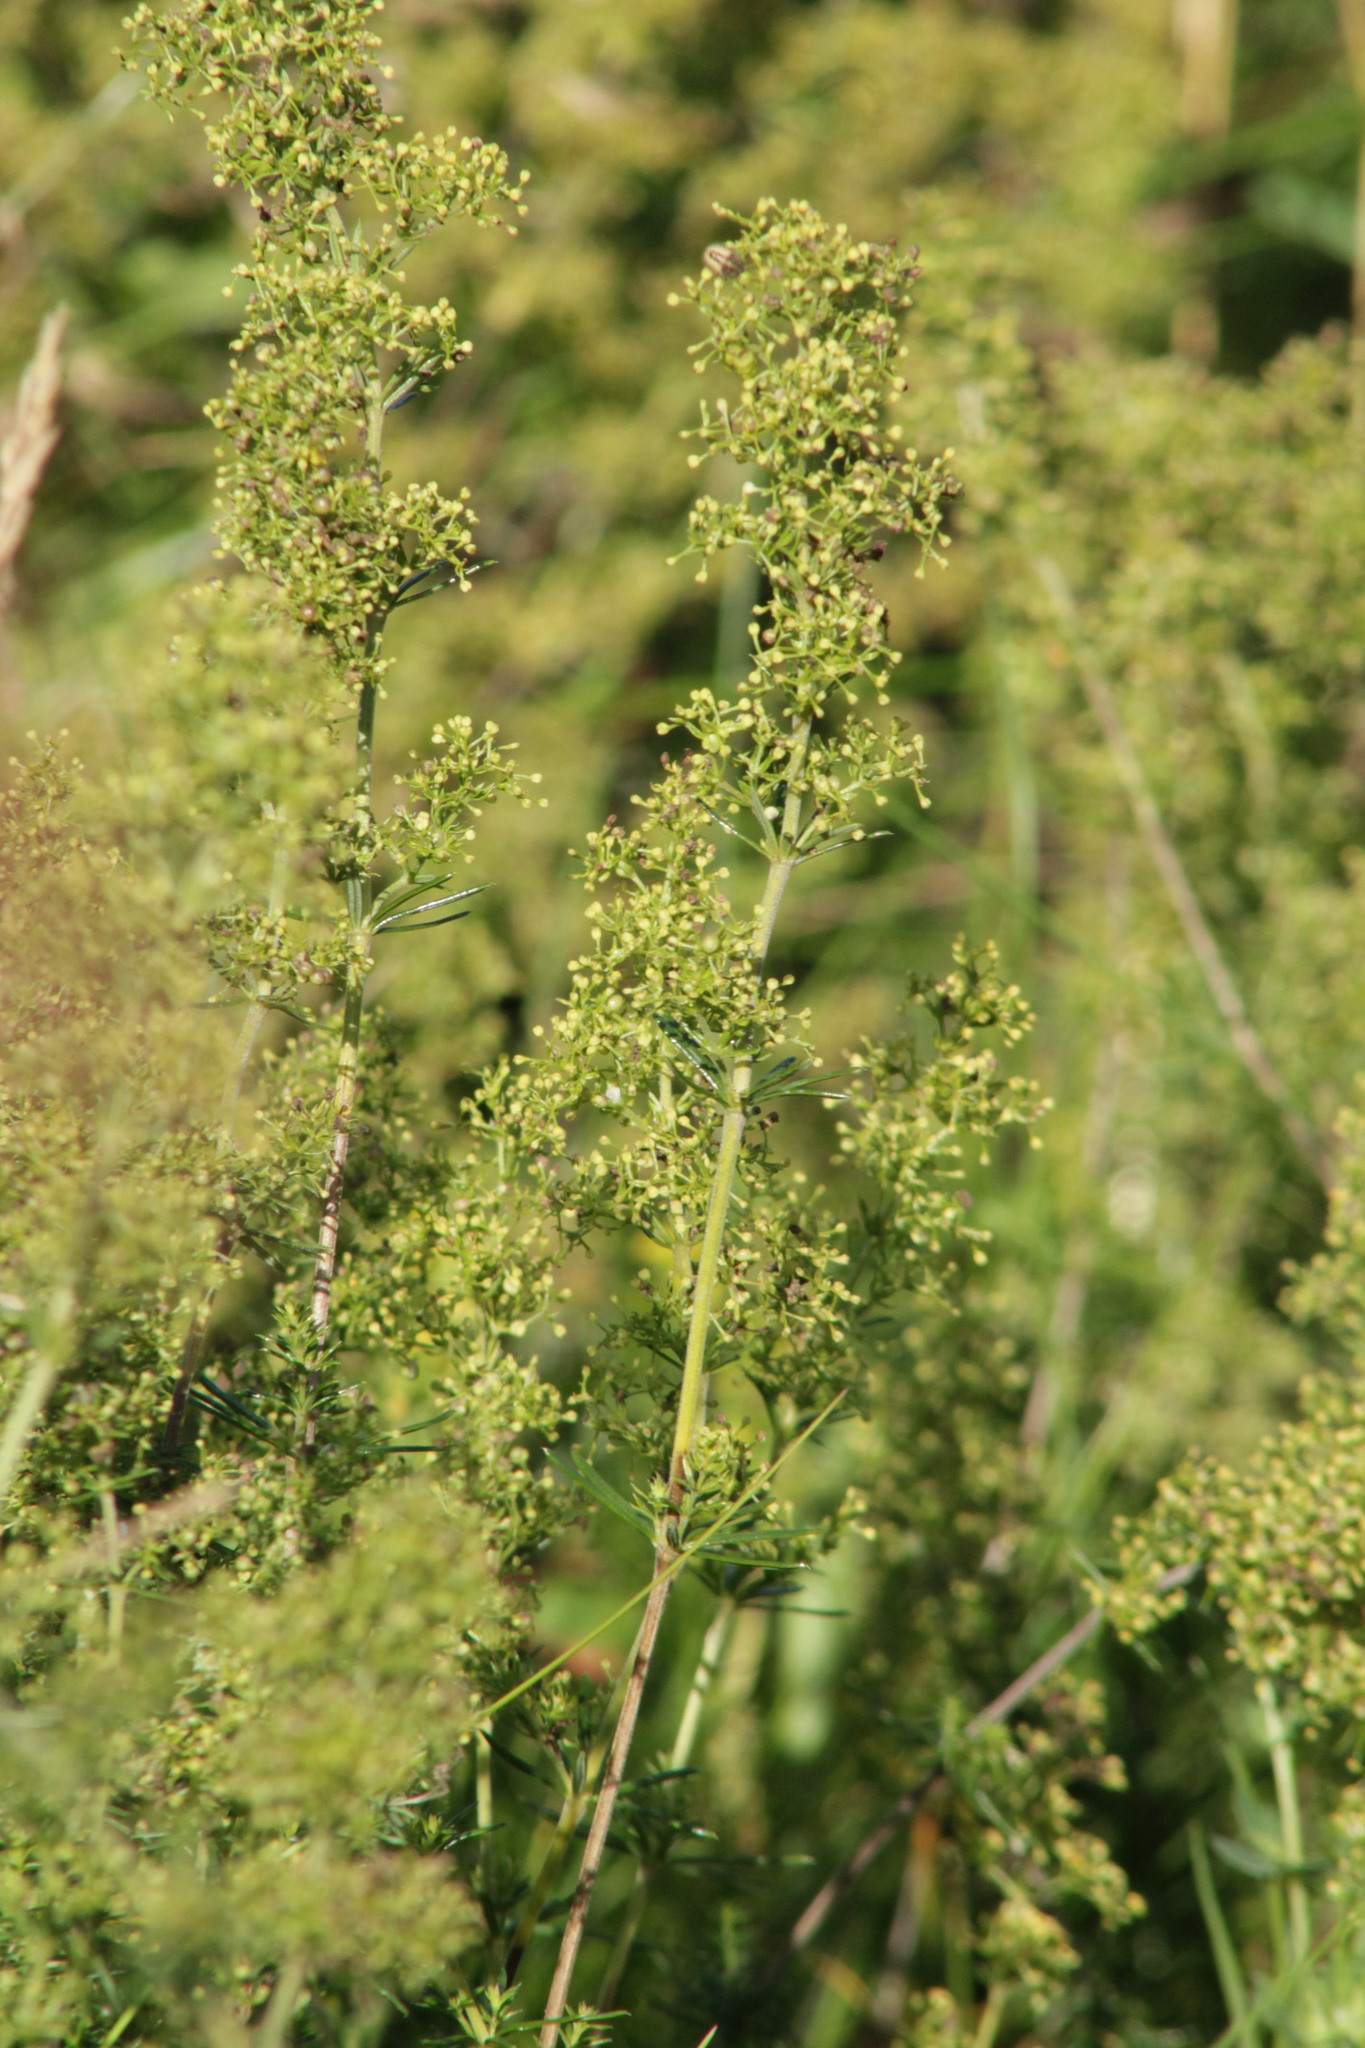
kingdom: Plantae
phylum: Tracheophyta
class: Magnoliopsida
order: Gentianales
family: Rubiaceae
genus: Galium
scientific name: Galium verum
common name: Lady's bedstraw
